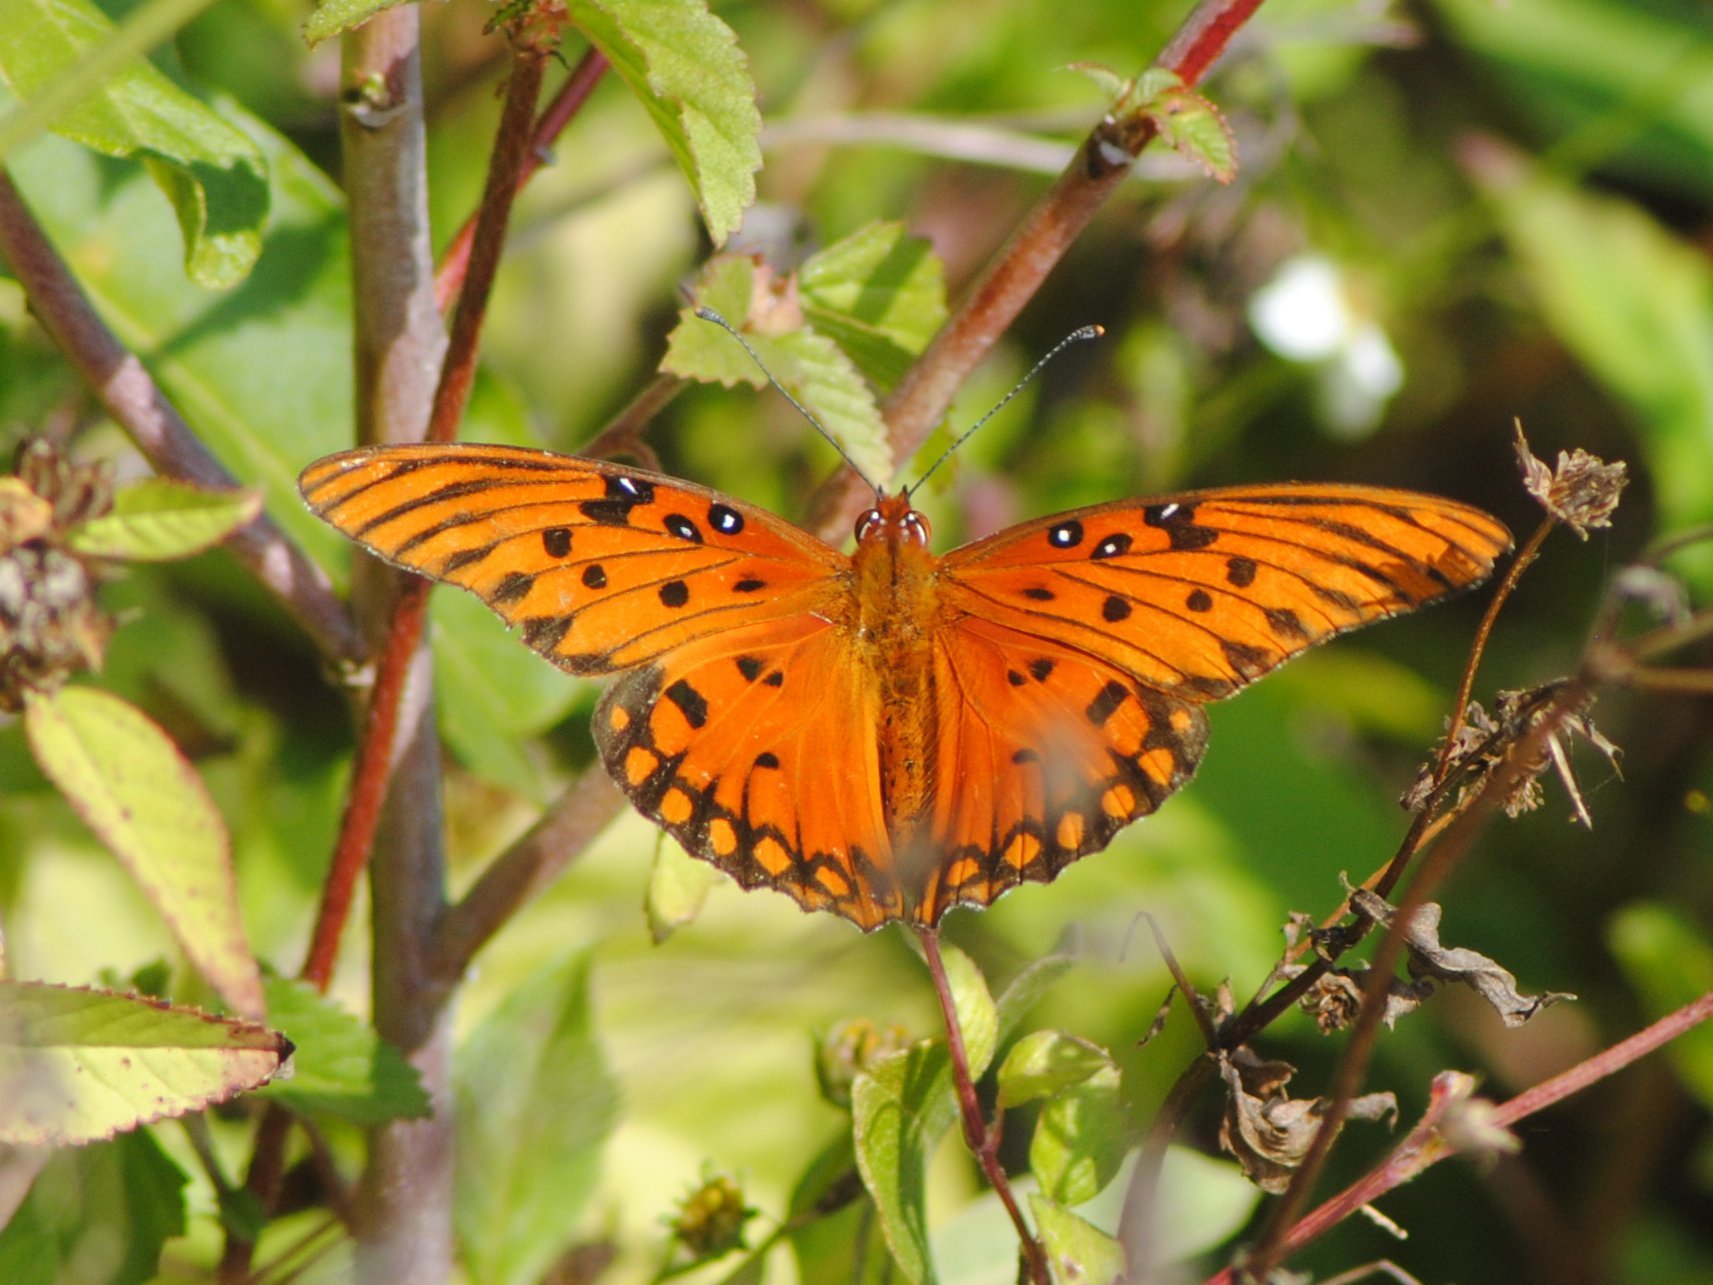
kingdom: Animalia
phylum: Arthropoda
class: Insecta
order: Lepidoptera
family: Nymphalidae
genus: Dione
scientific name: Dione vanillae
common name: Gulf fritillary
